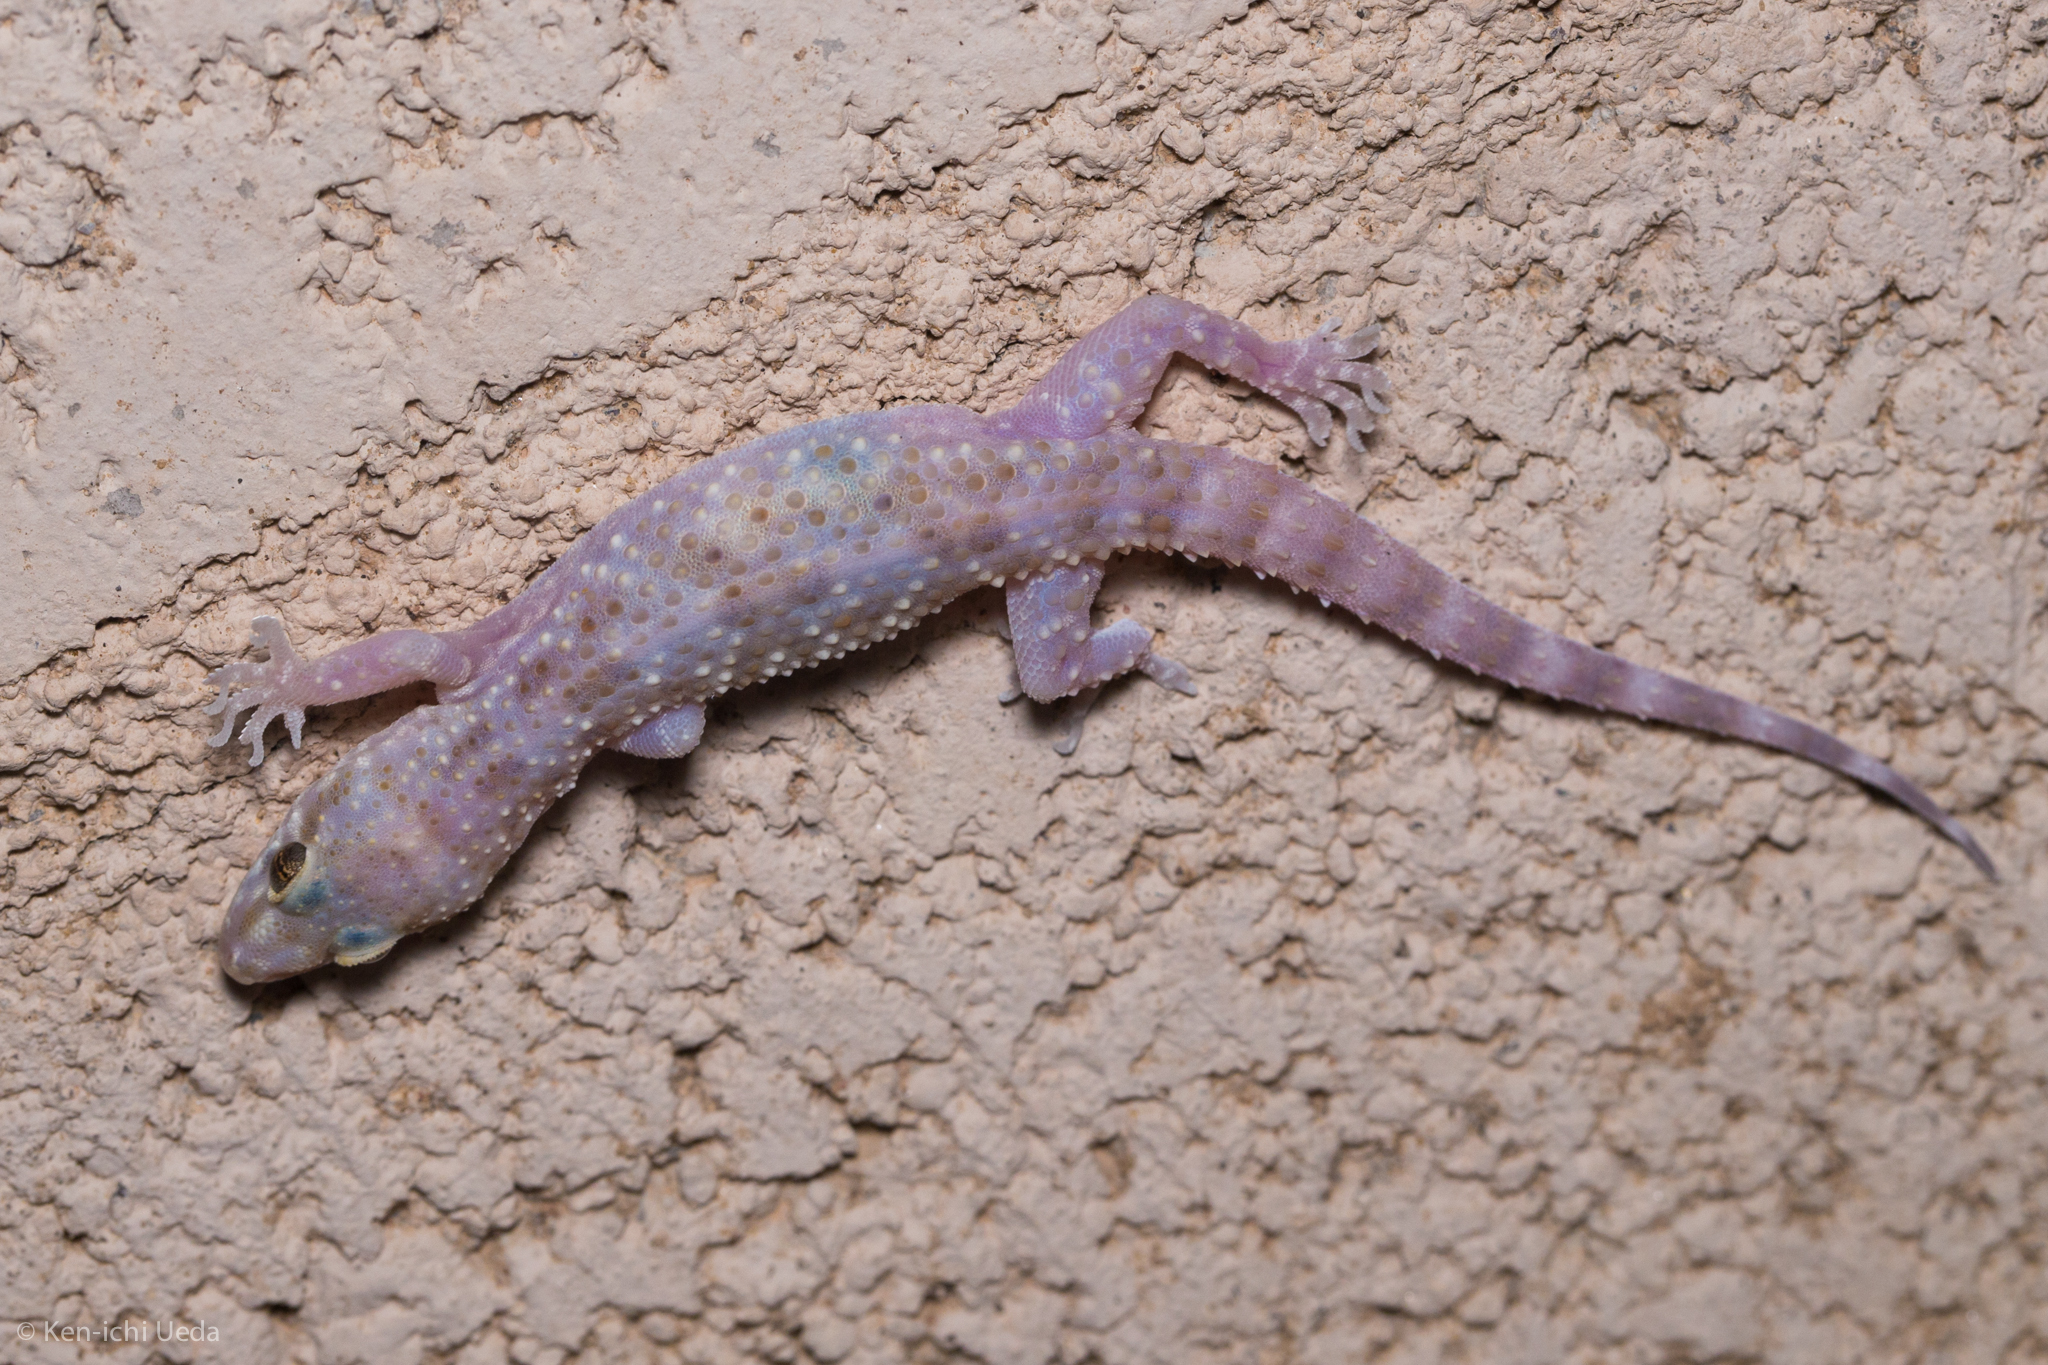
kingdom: Animalia
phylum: Chordata
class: Squamata
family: Gekkonidae
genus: Hemidactylus
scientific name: Hemidactylus turcicus
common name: Turkish gecko
